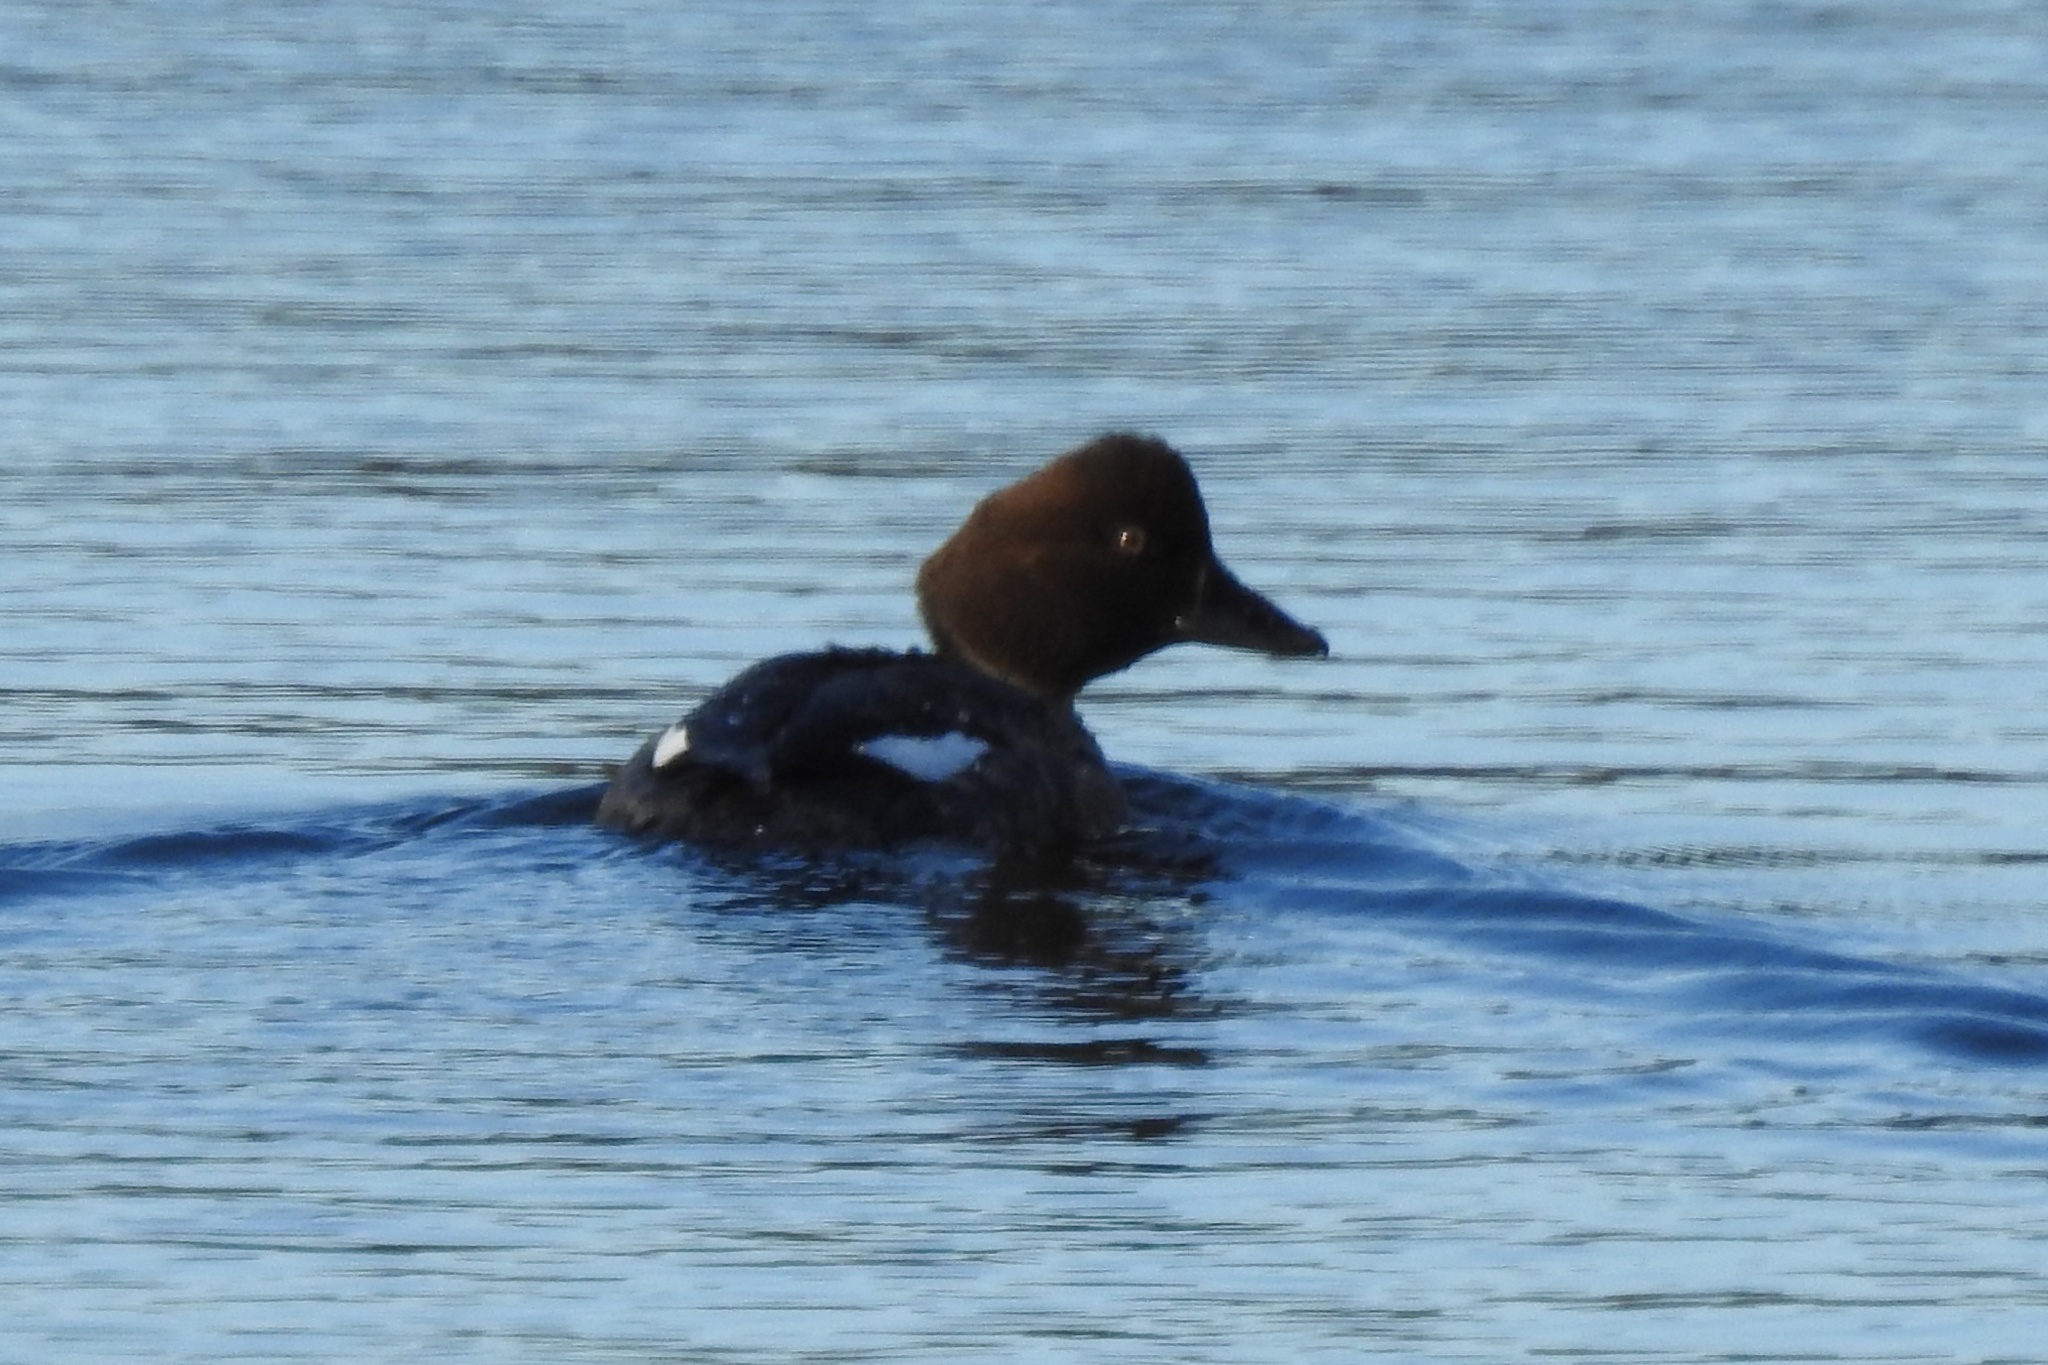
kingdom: Animalia
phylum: Chordata
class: Aves
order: Anseriformes
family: Anatidae
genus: Bucephala
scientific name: Bucephala clangula
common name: Common goldeneye
